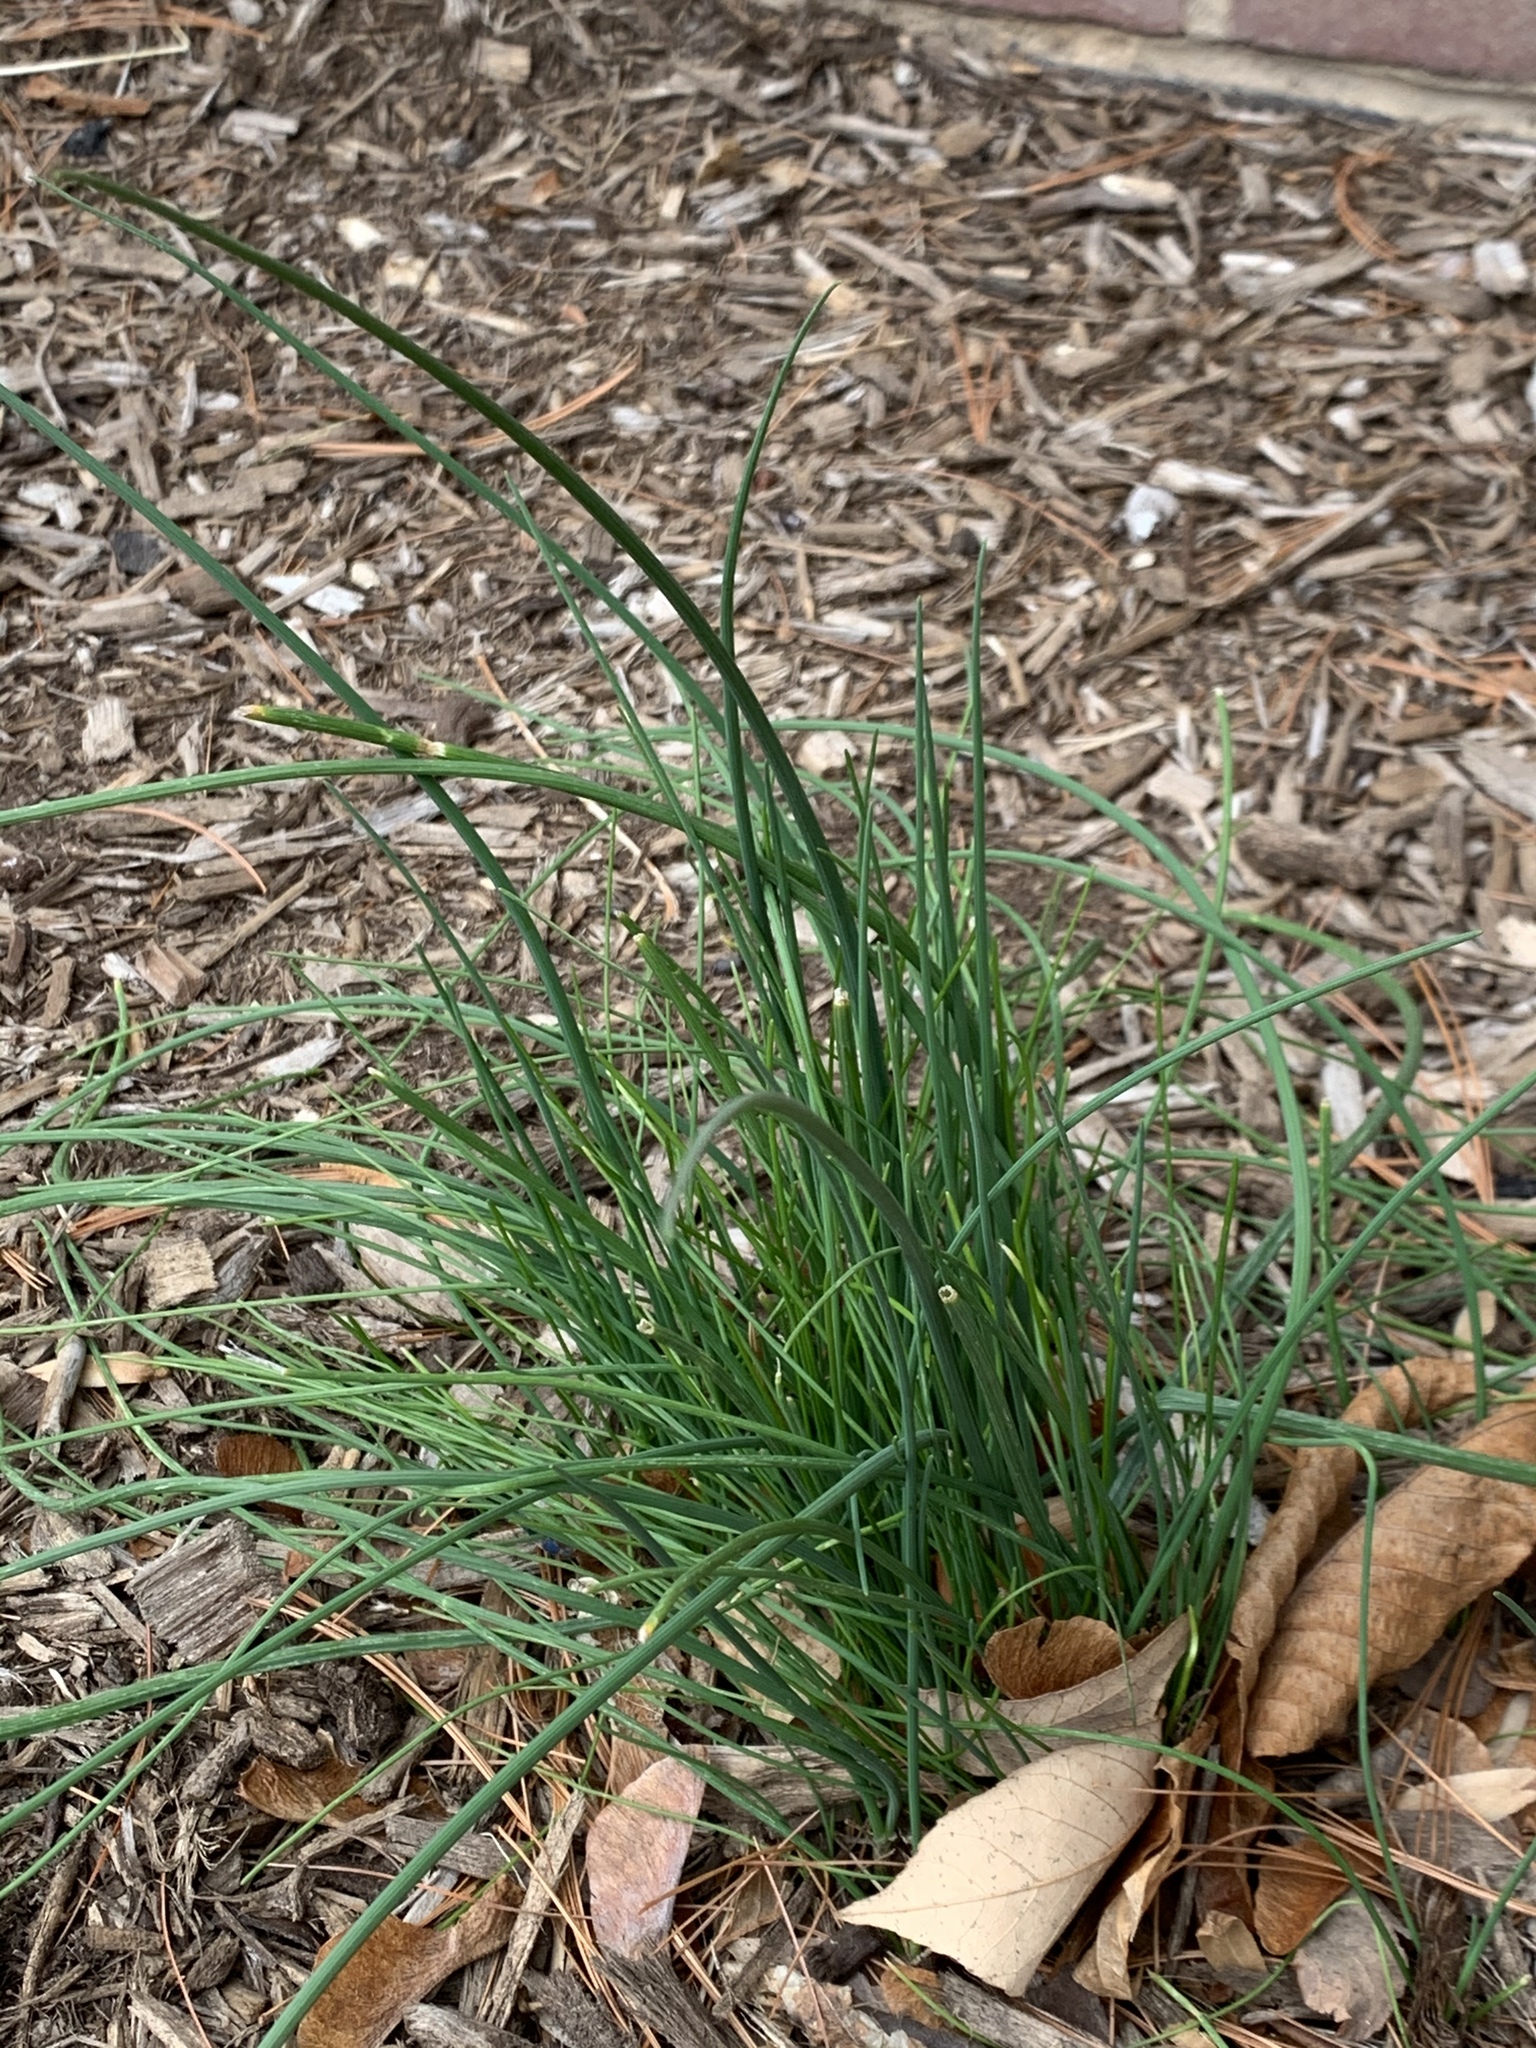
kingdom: Plantae
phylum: Tracheophyta
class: Liliopsida
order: Asparagales
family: Amaryllidaceae
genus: Allium
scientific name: Allium vineale
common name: Crow garlic
